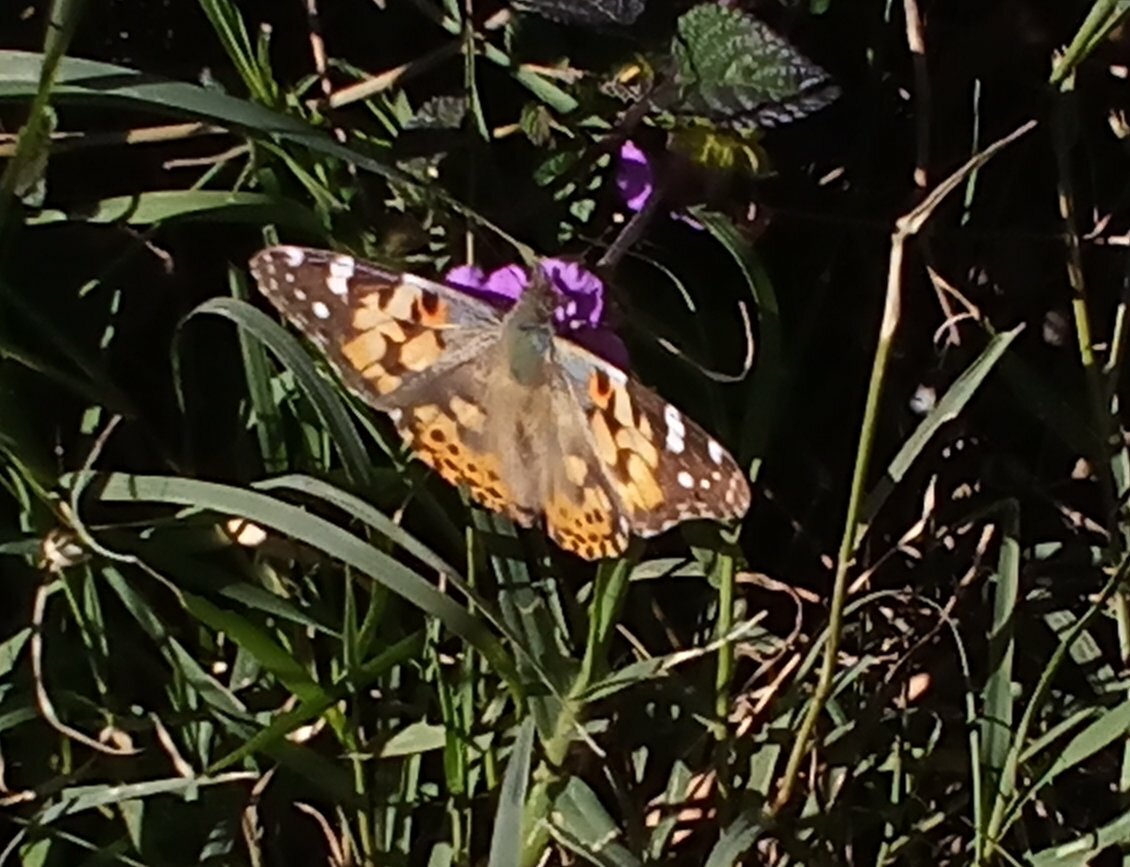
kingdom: Animalia
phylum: Arthropoda
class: Insecta
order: Lepidoptera
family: Nymphalidae
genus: Vanessa
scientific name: Vanessa cardui
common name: Painted lady
